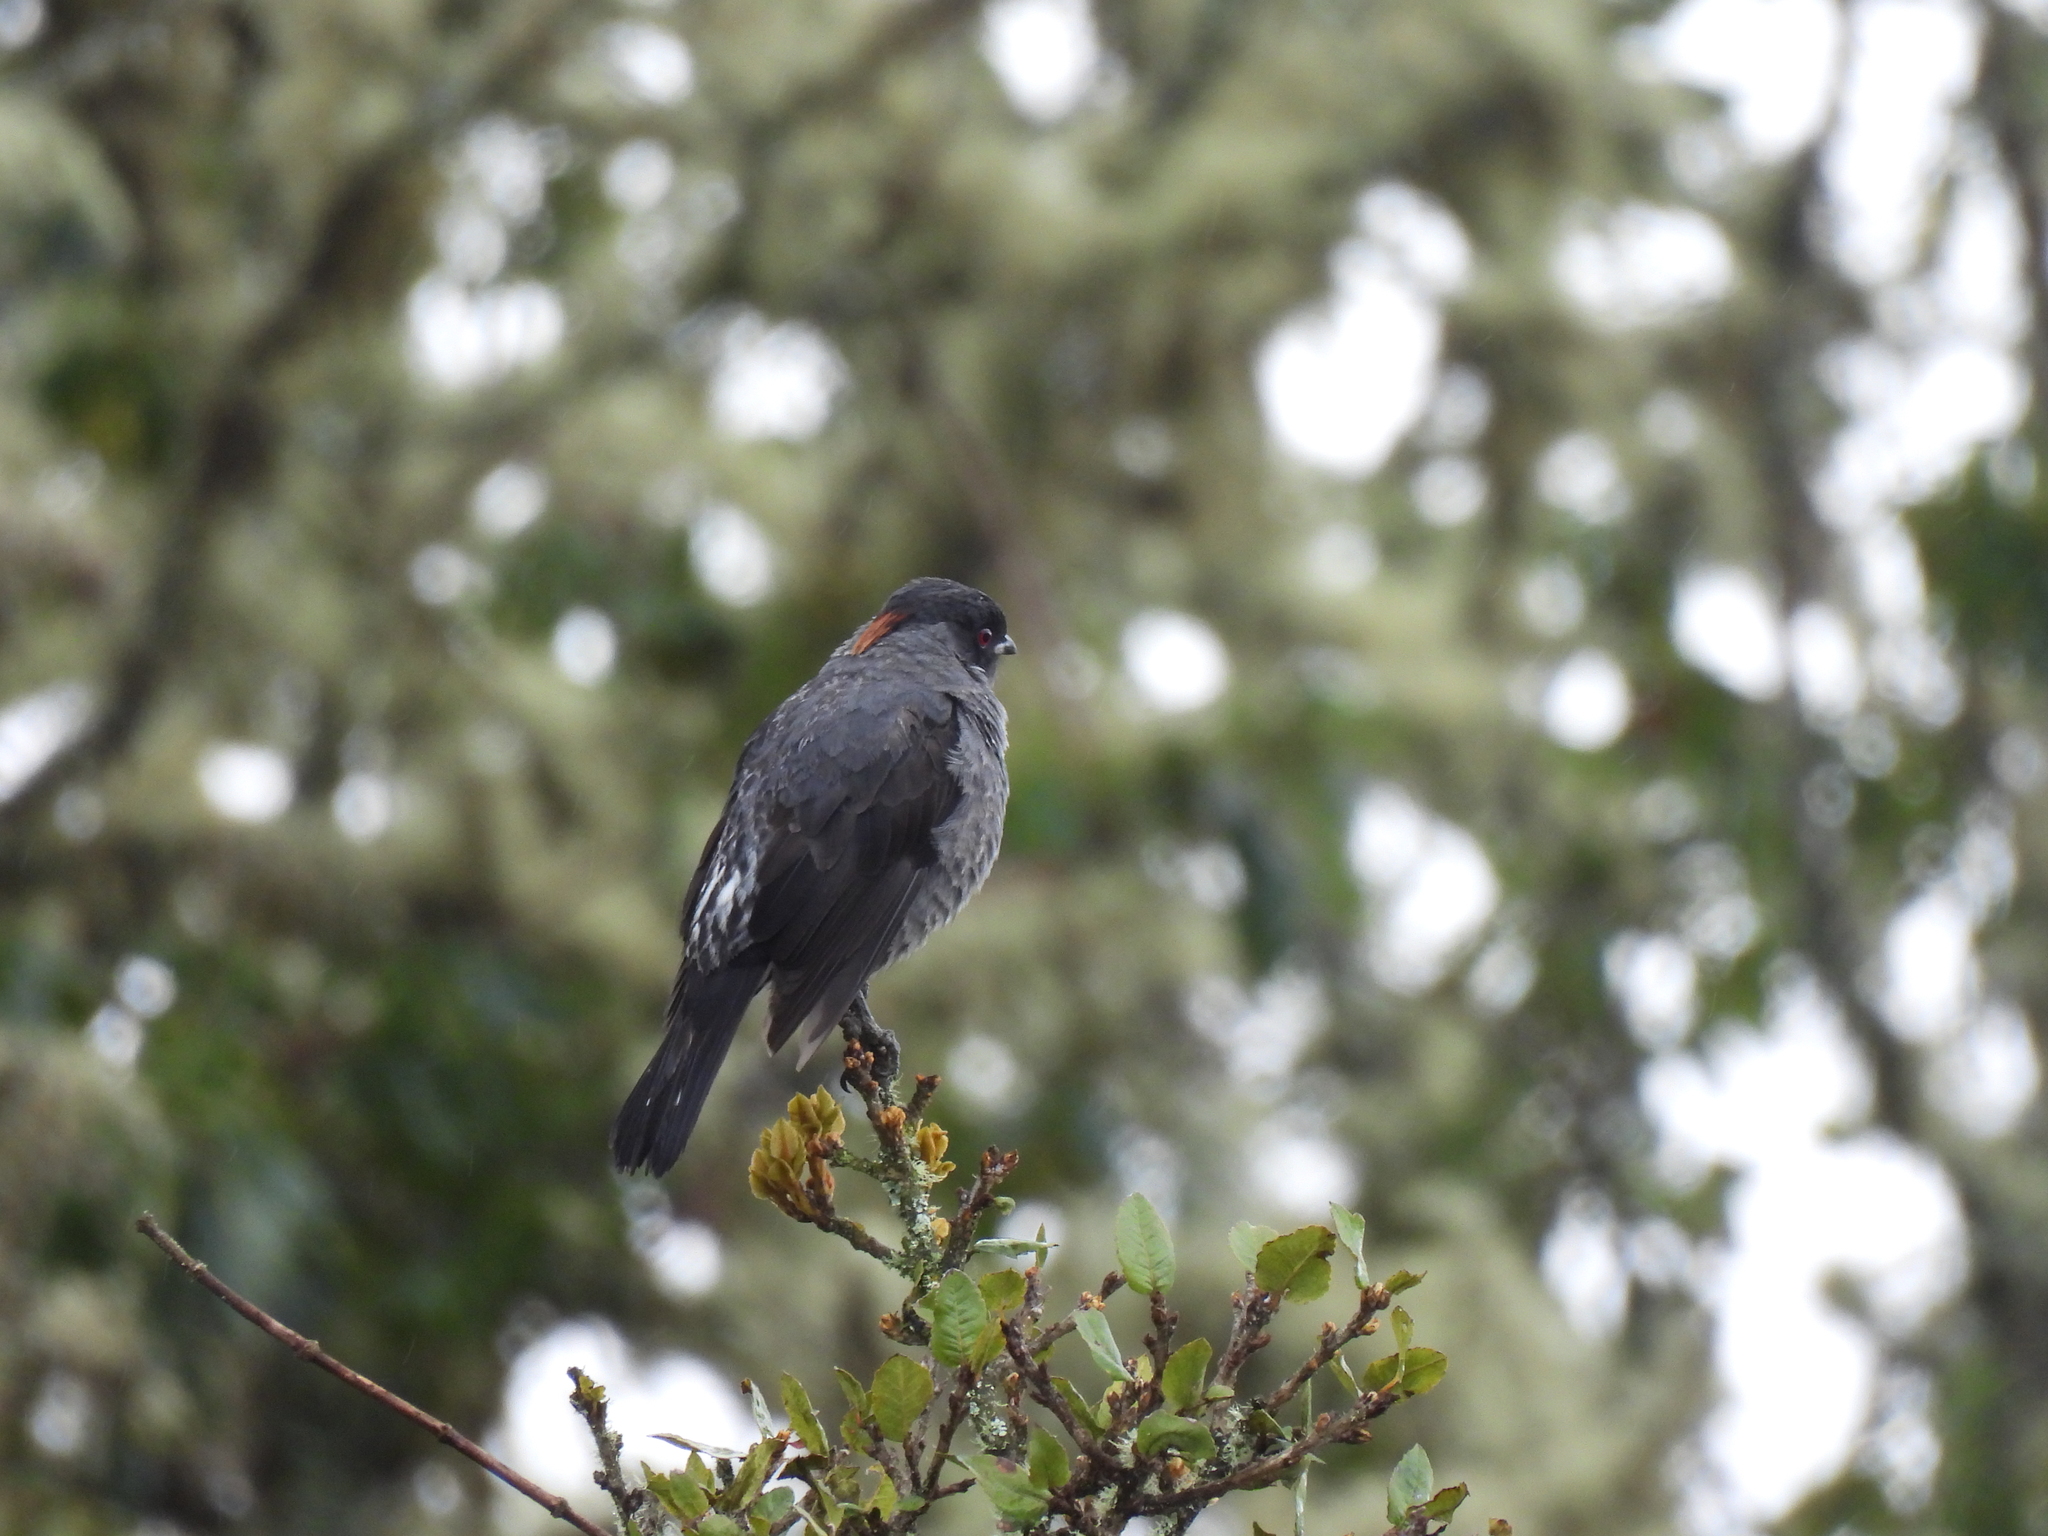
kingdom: Animalia
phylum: Chordata
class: Aves
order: Passeriformes
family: Cotingidae
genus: Ampelion
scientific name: Ampelion rubrocristatus
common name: Red-crested cotinga
